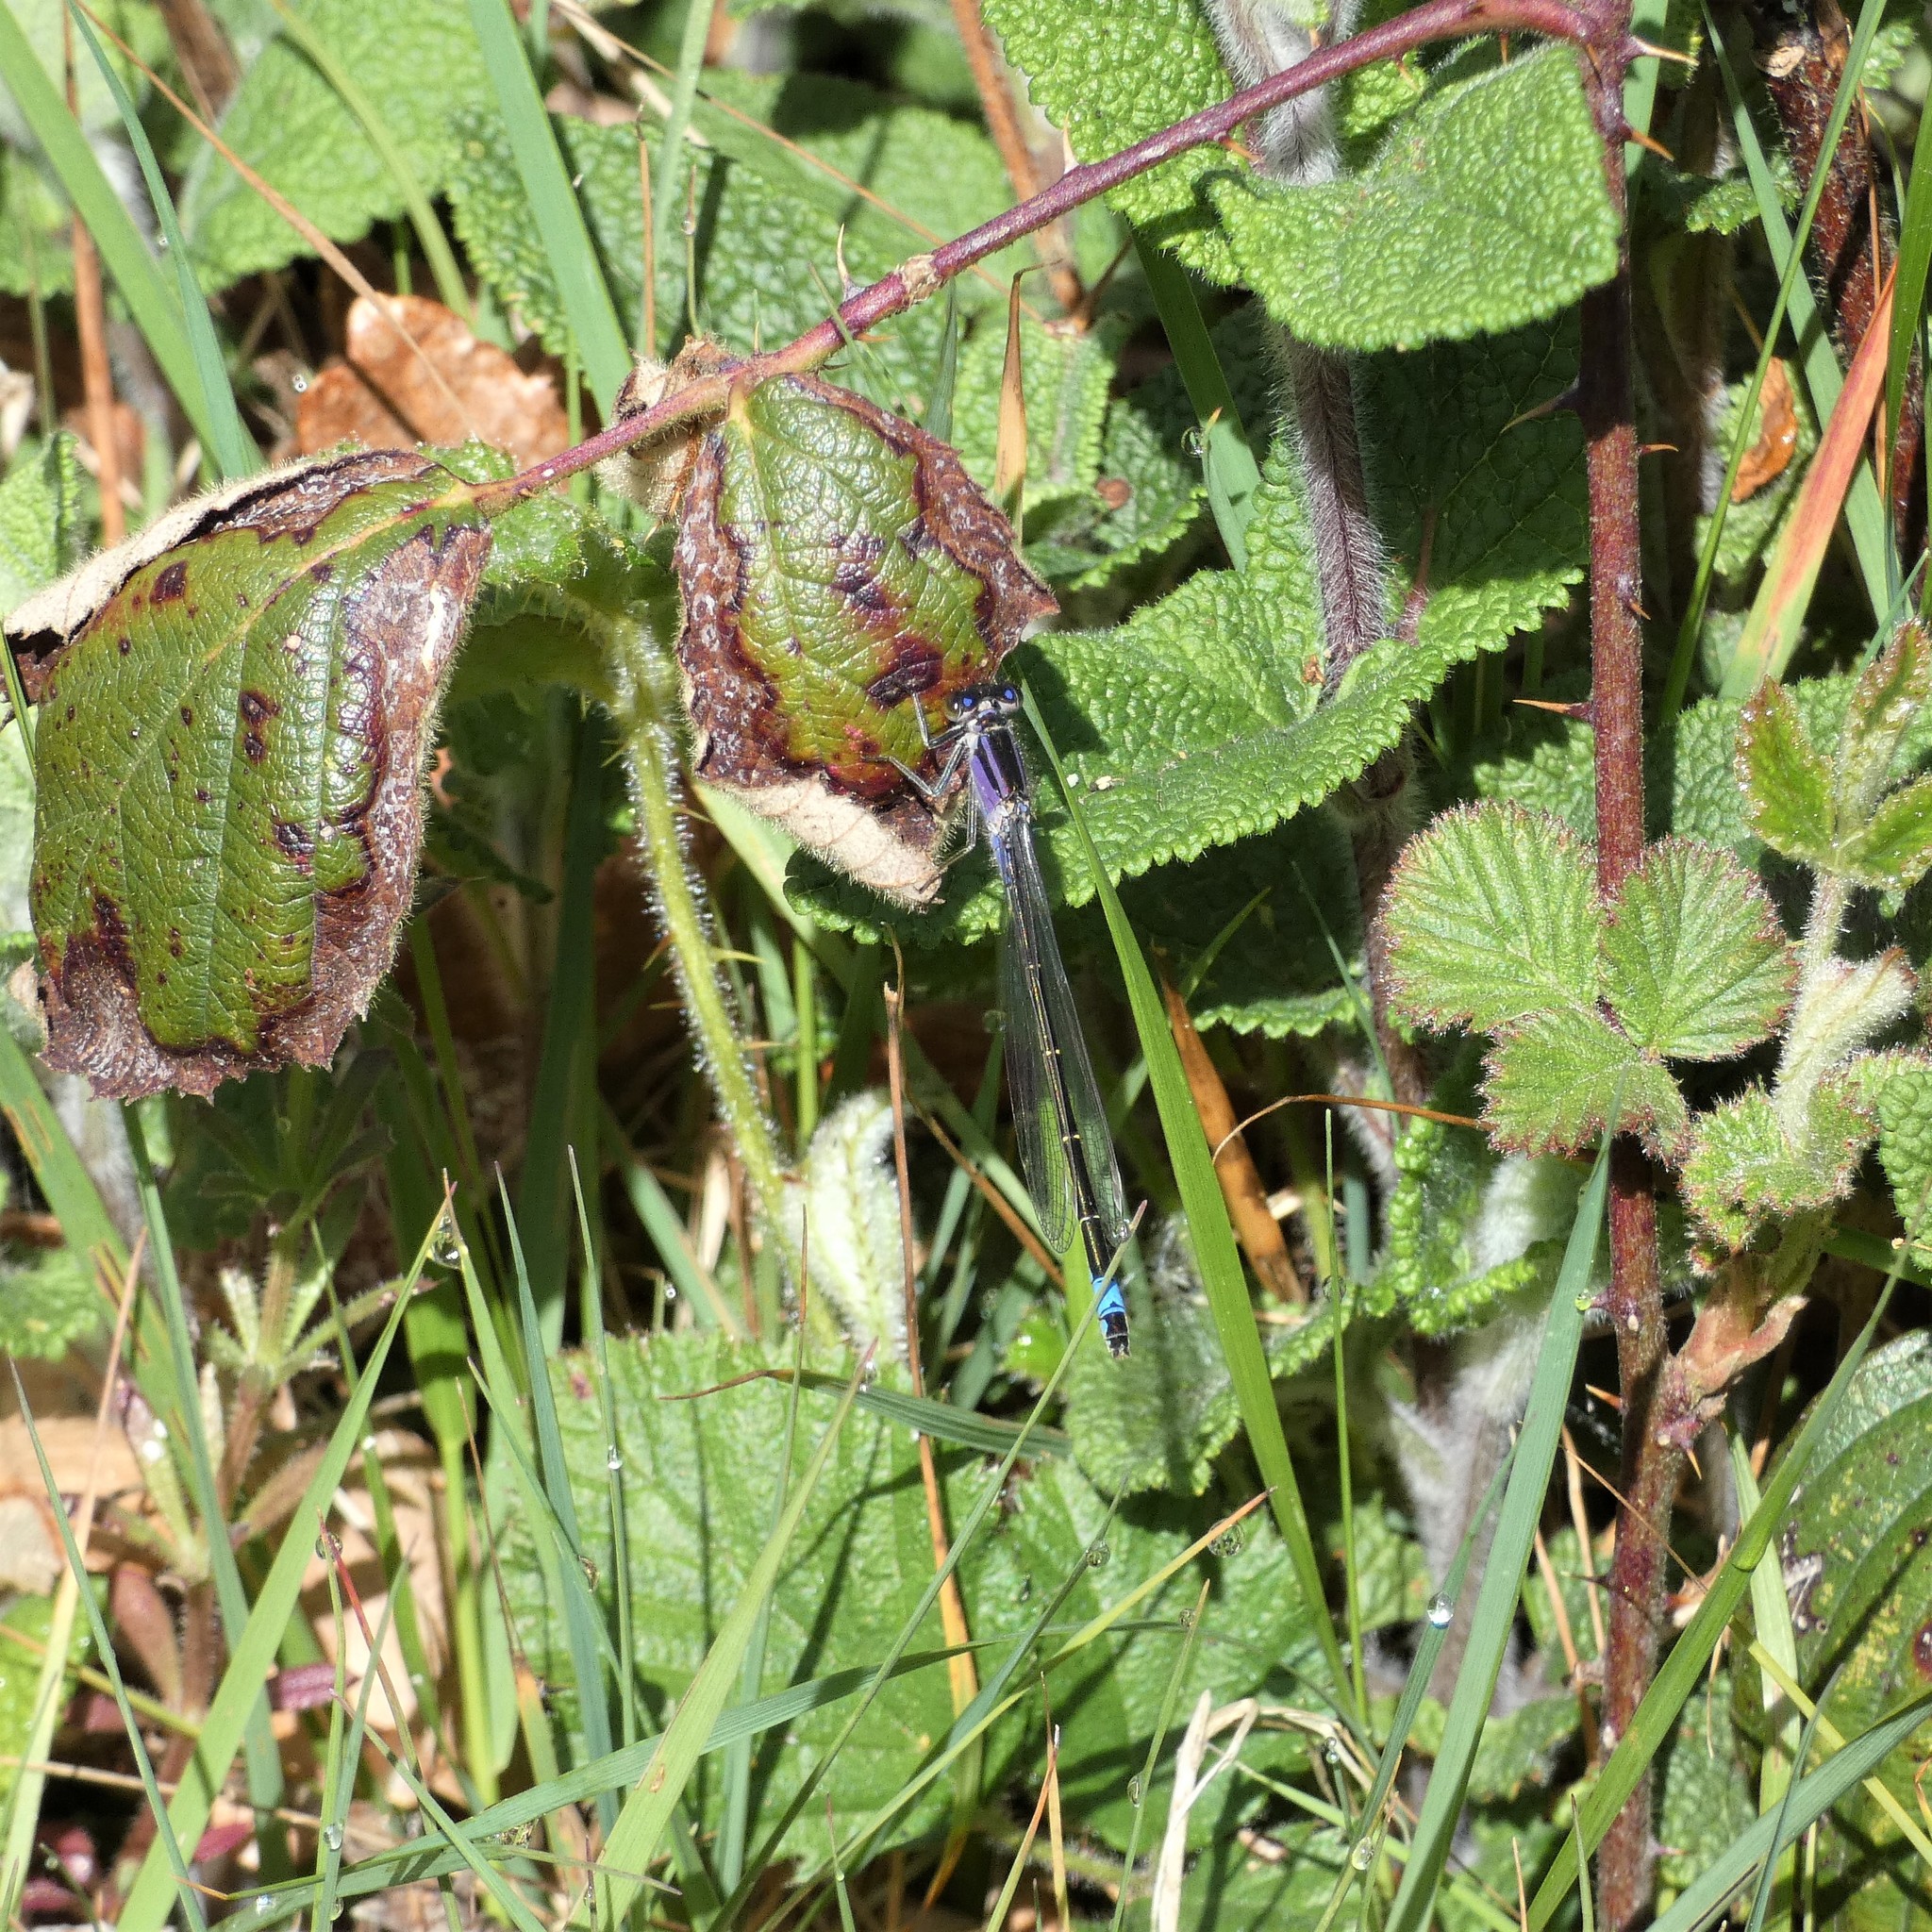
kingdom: Animalia
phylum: Arthropoda
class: Insecta
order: Odonata
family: Coenagrionidae
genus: Ischnura
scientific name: Ischnura elegans
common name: Blue-tailed damselfly
